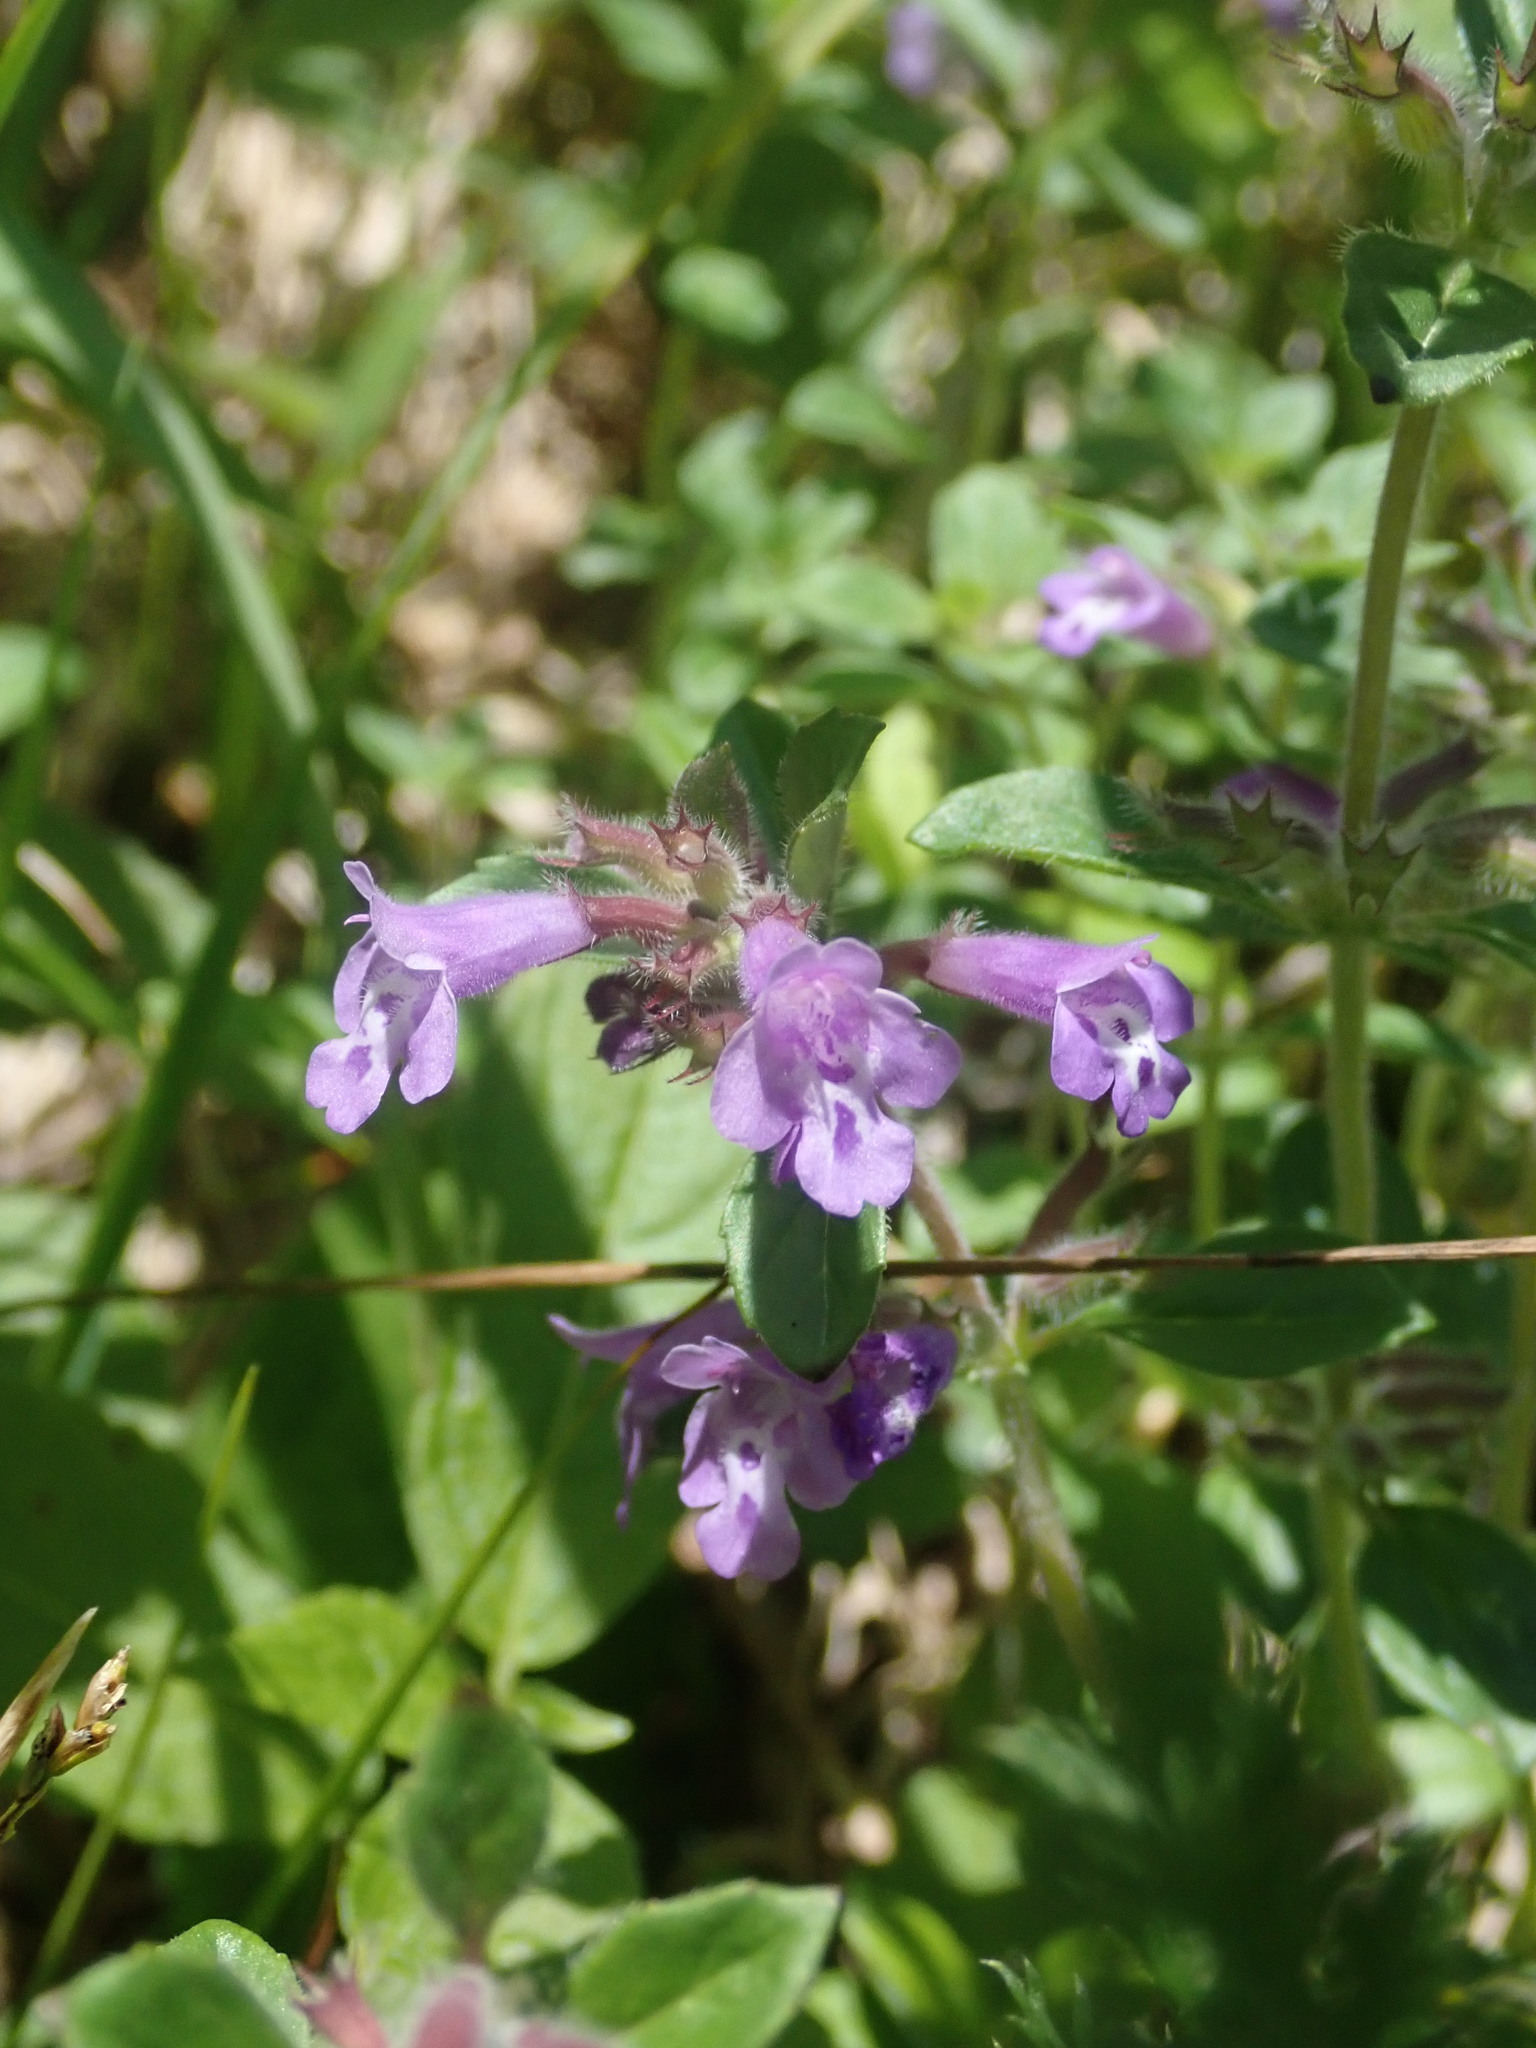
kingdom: Plantae
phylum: Tracheophyta
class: Magnoliopsida
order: Lamiales
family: Lamiaceae
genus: Clinopodium
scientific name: Clinopodium alpinum
